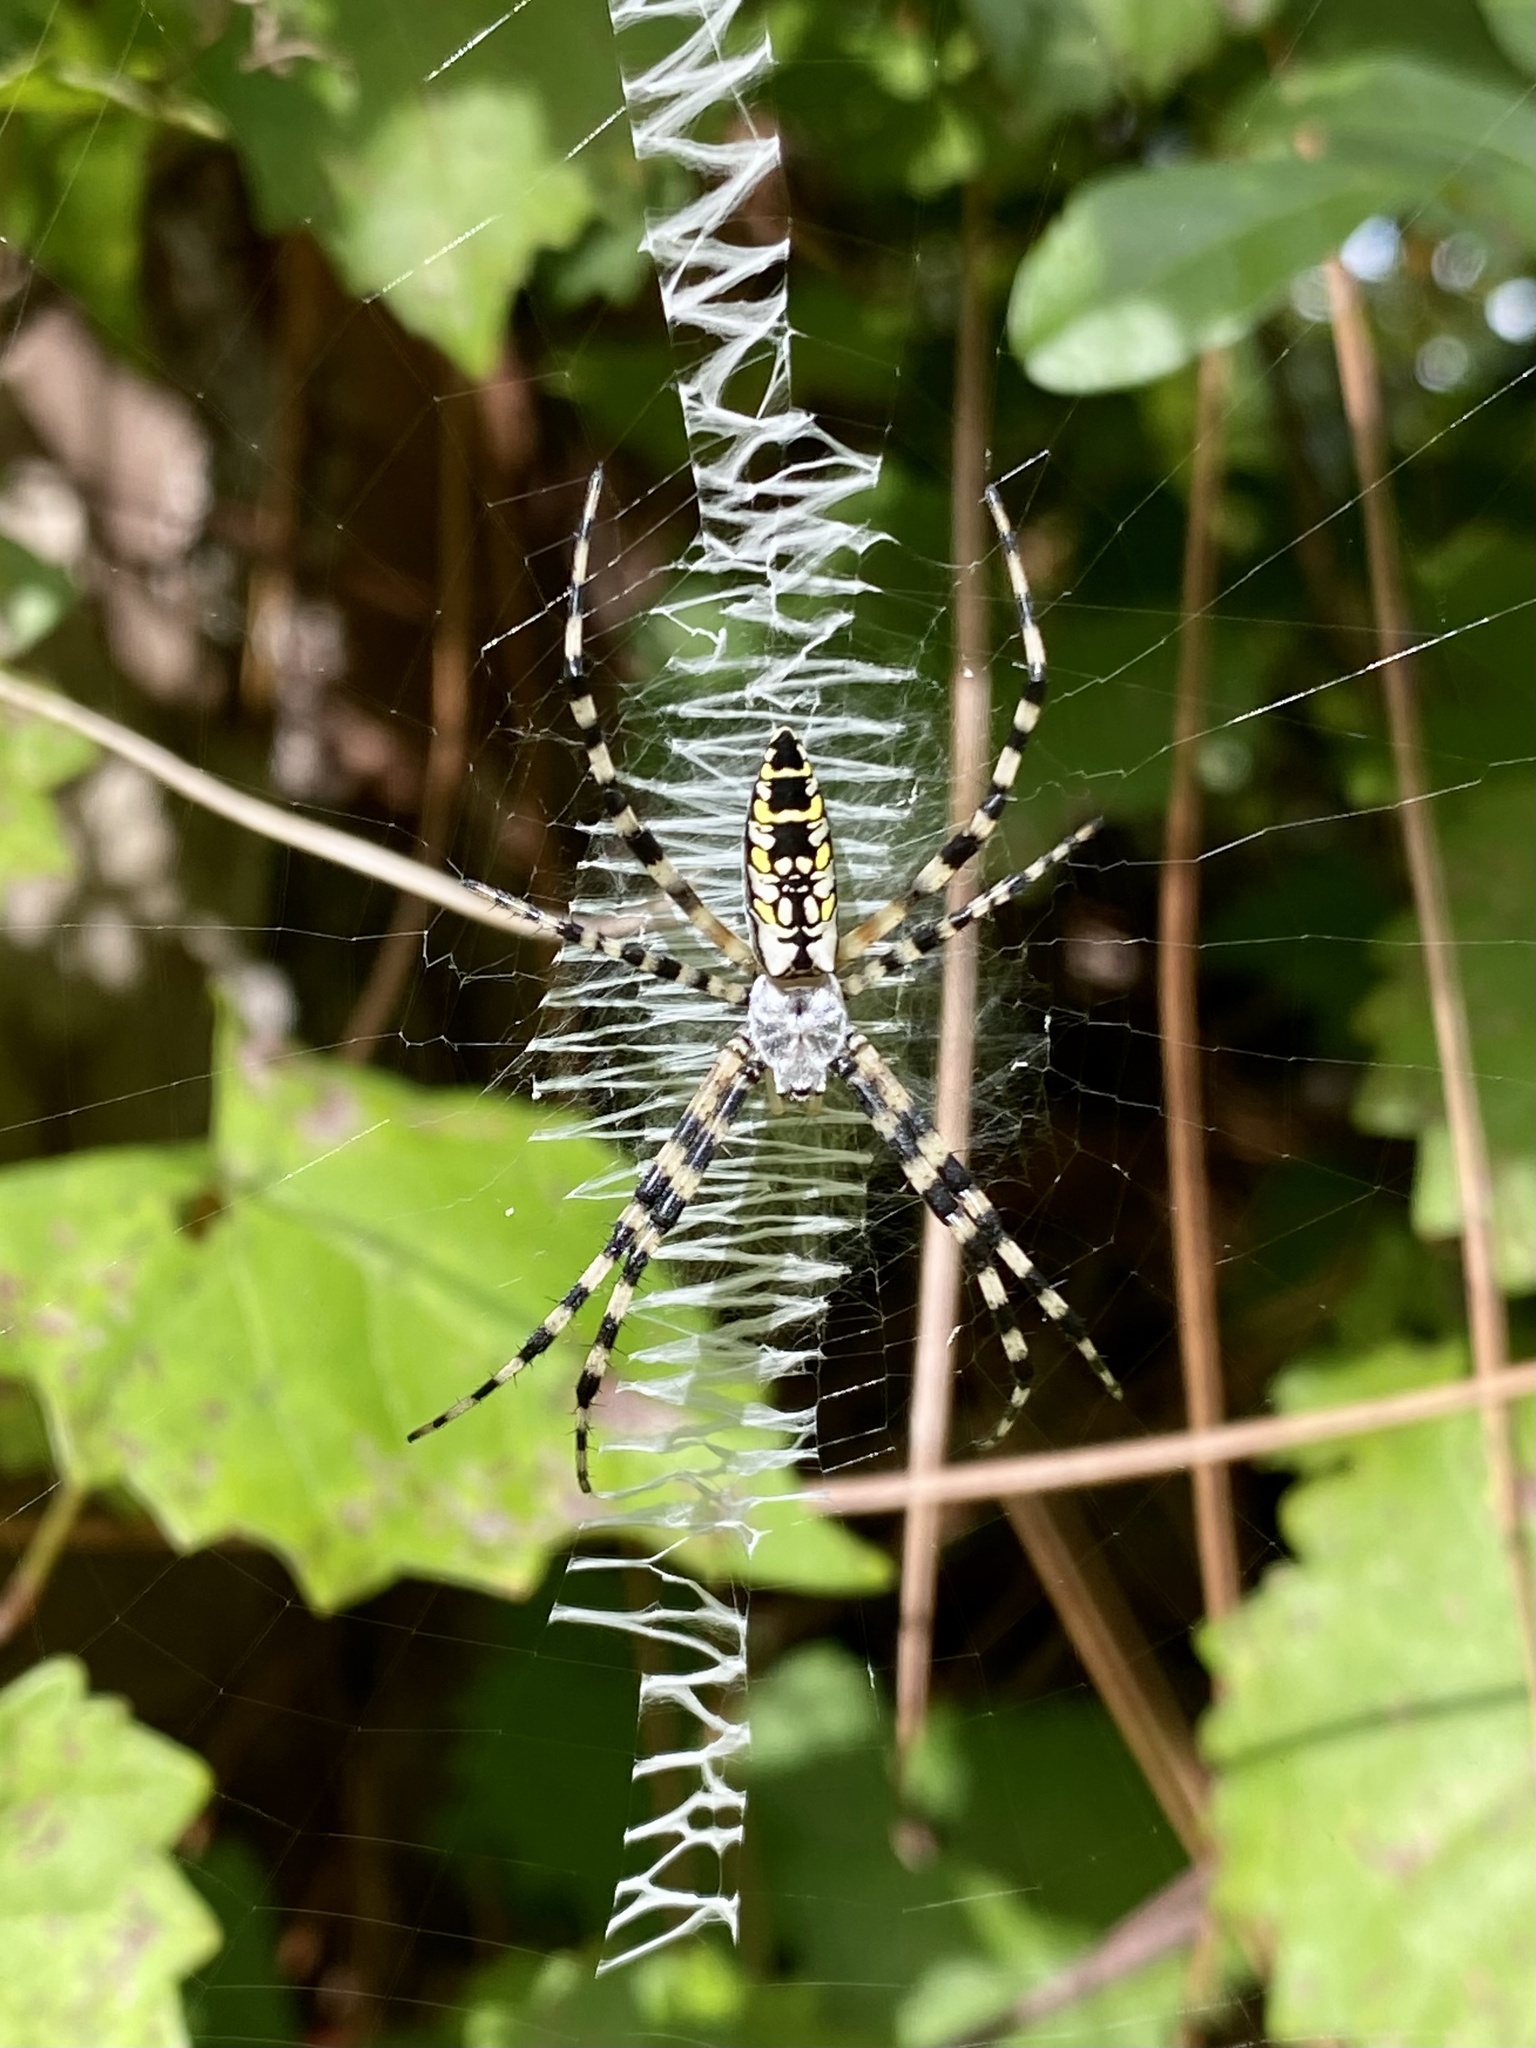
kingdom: Animalia
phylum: Arthropoda
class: Arachnida
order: Araneae
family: Araneidae
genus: Argiope
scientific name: Argiope aurantia
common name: Orb weavers
